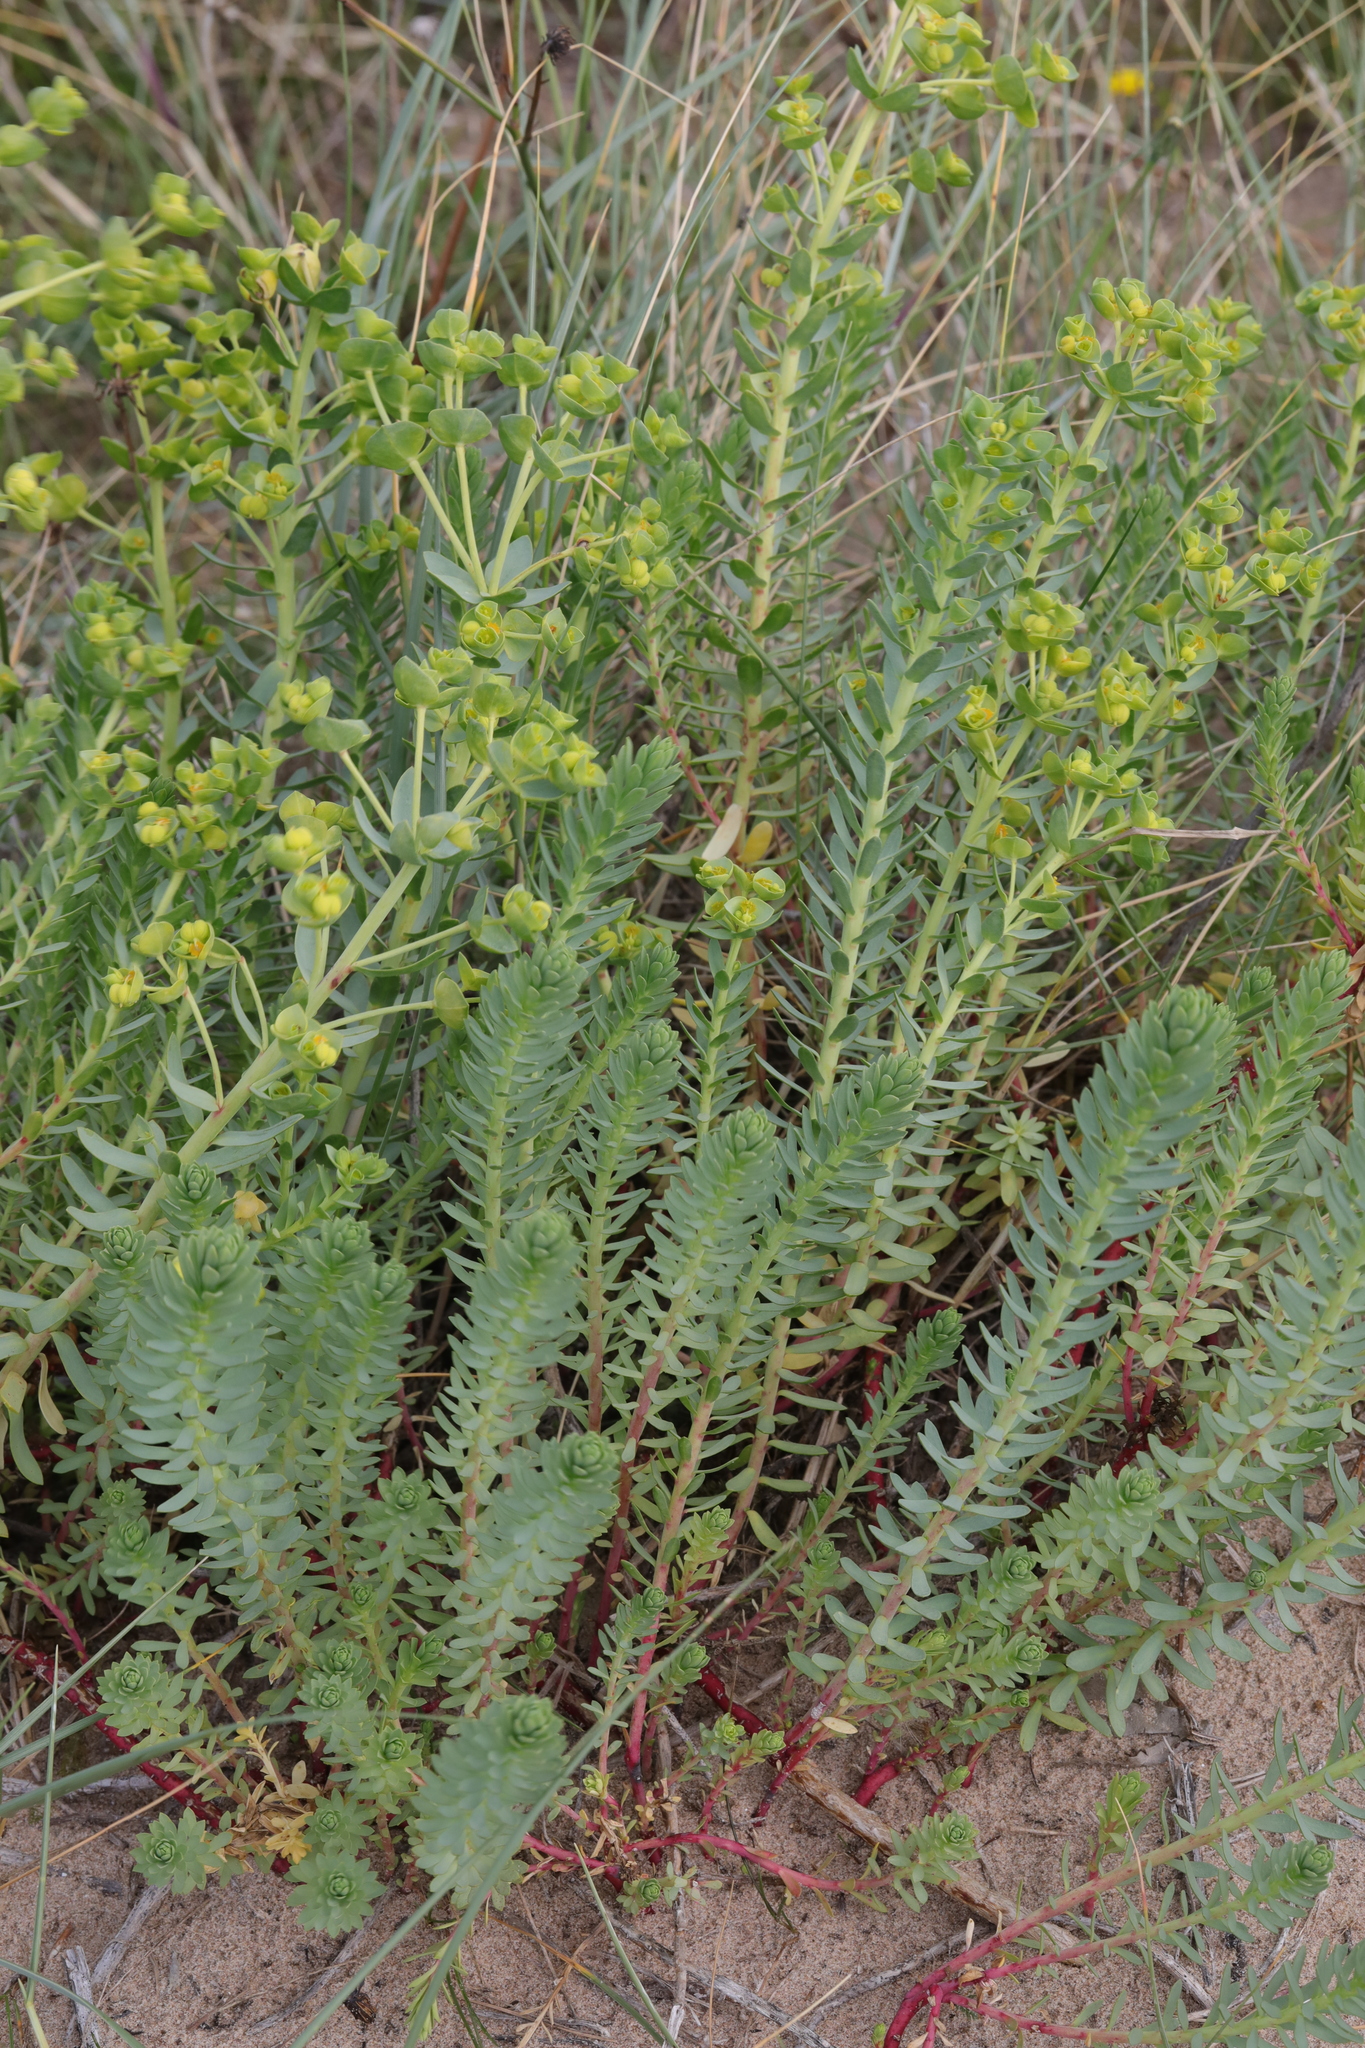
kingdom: Plantae
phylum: Tracheophyta
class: Magnoliopsida
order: Malpighiales
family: Euphorbiaceae
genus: Euphorbia
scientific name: Euphorbia paralias
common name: Sea spurge
